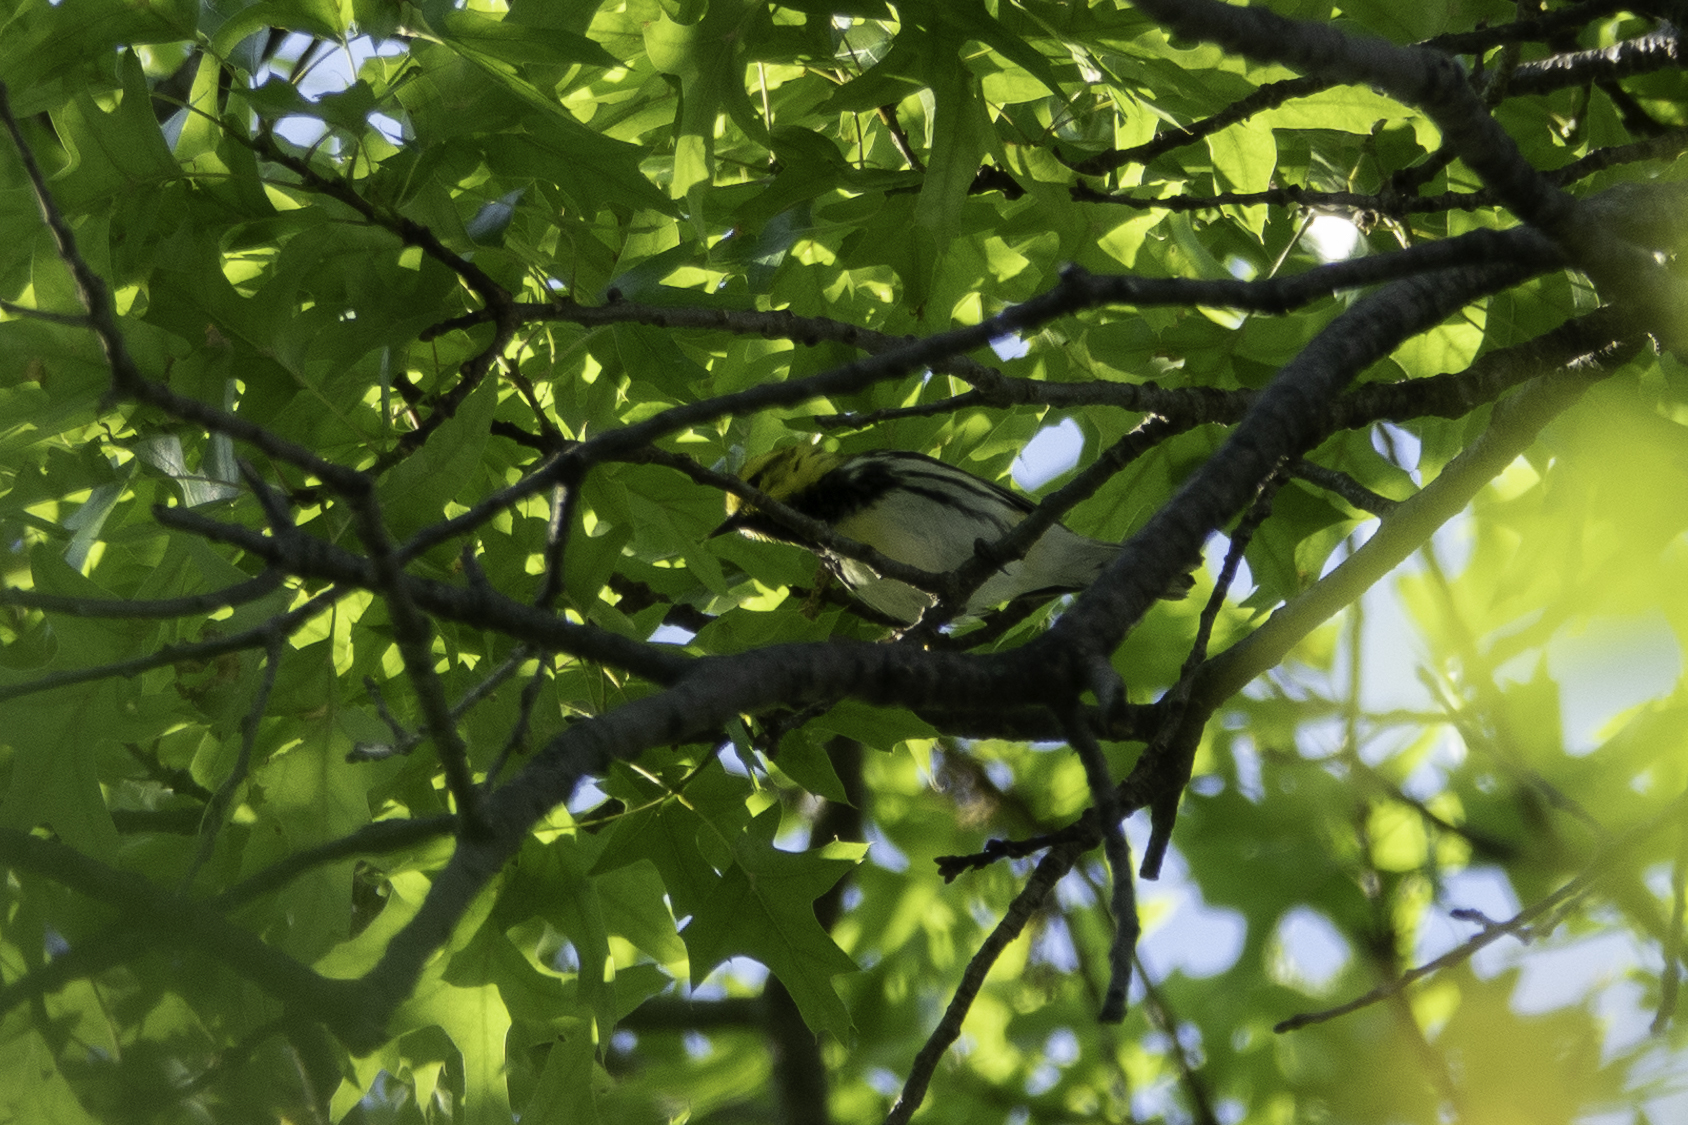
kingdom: Animalia
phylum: Chordata
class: Aves
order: Passeriformes
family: Parulidae
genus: Setophaga
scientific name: Setophaga virens
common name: Black-throated green warbler
